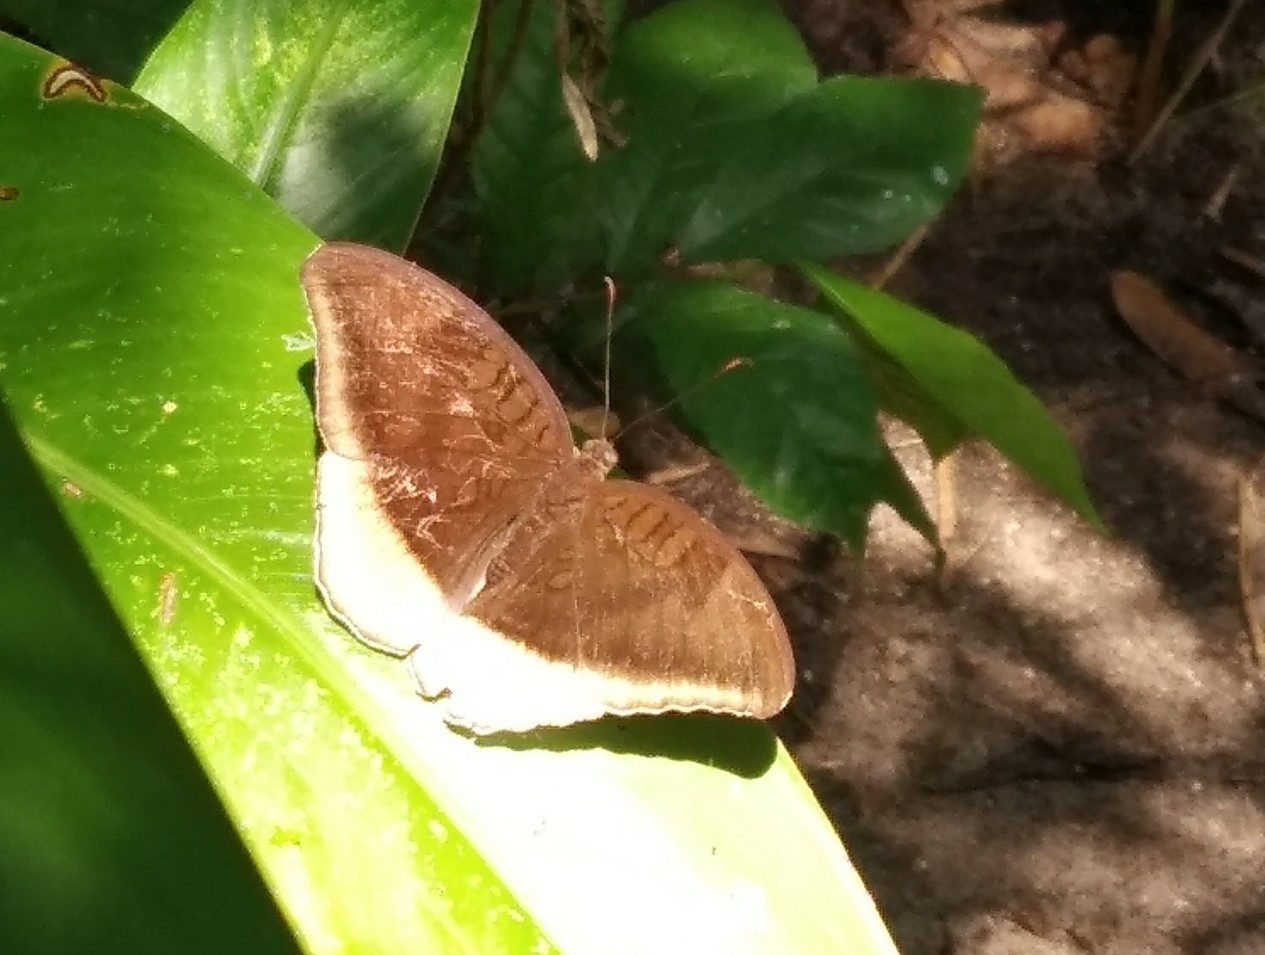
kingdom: Animalia
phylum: Arthropoda
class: Insecta
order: Lepidoptera
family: Nymphalidae
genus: Tanaecia
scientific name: Tanaecia lepidea
